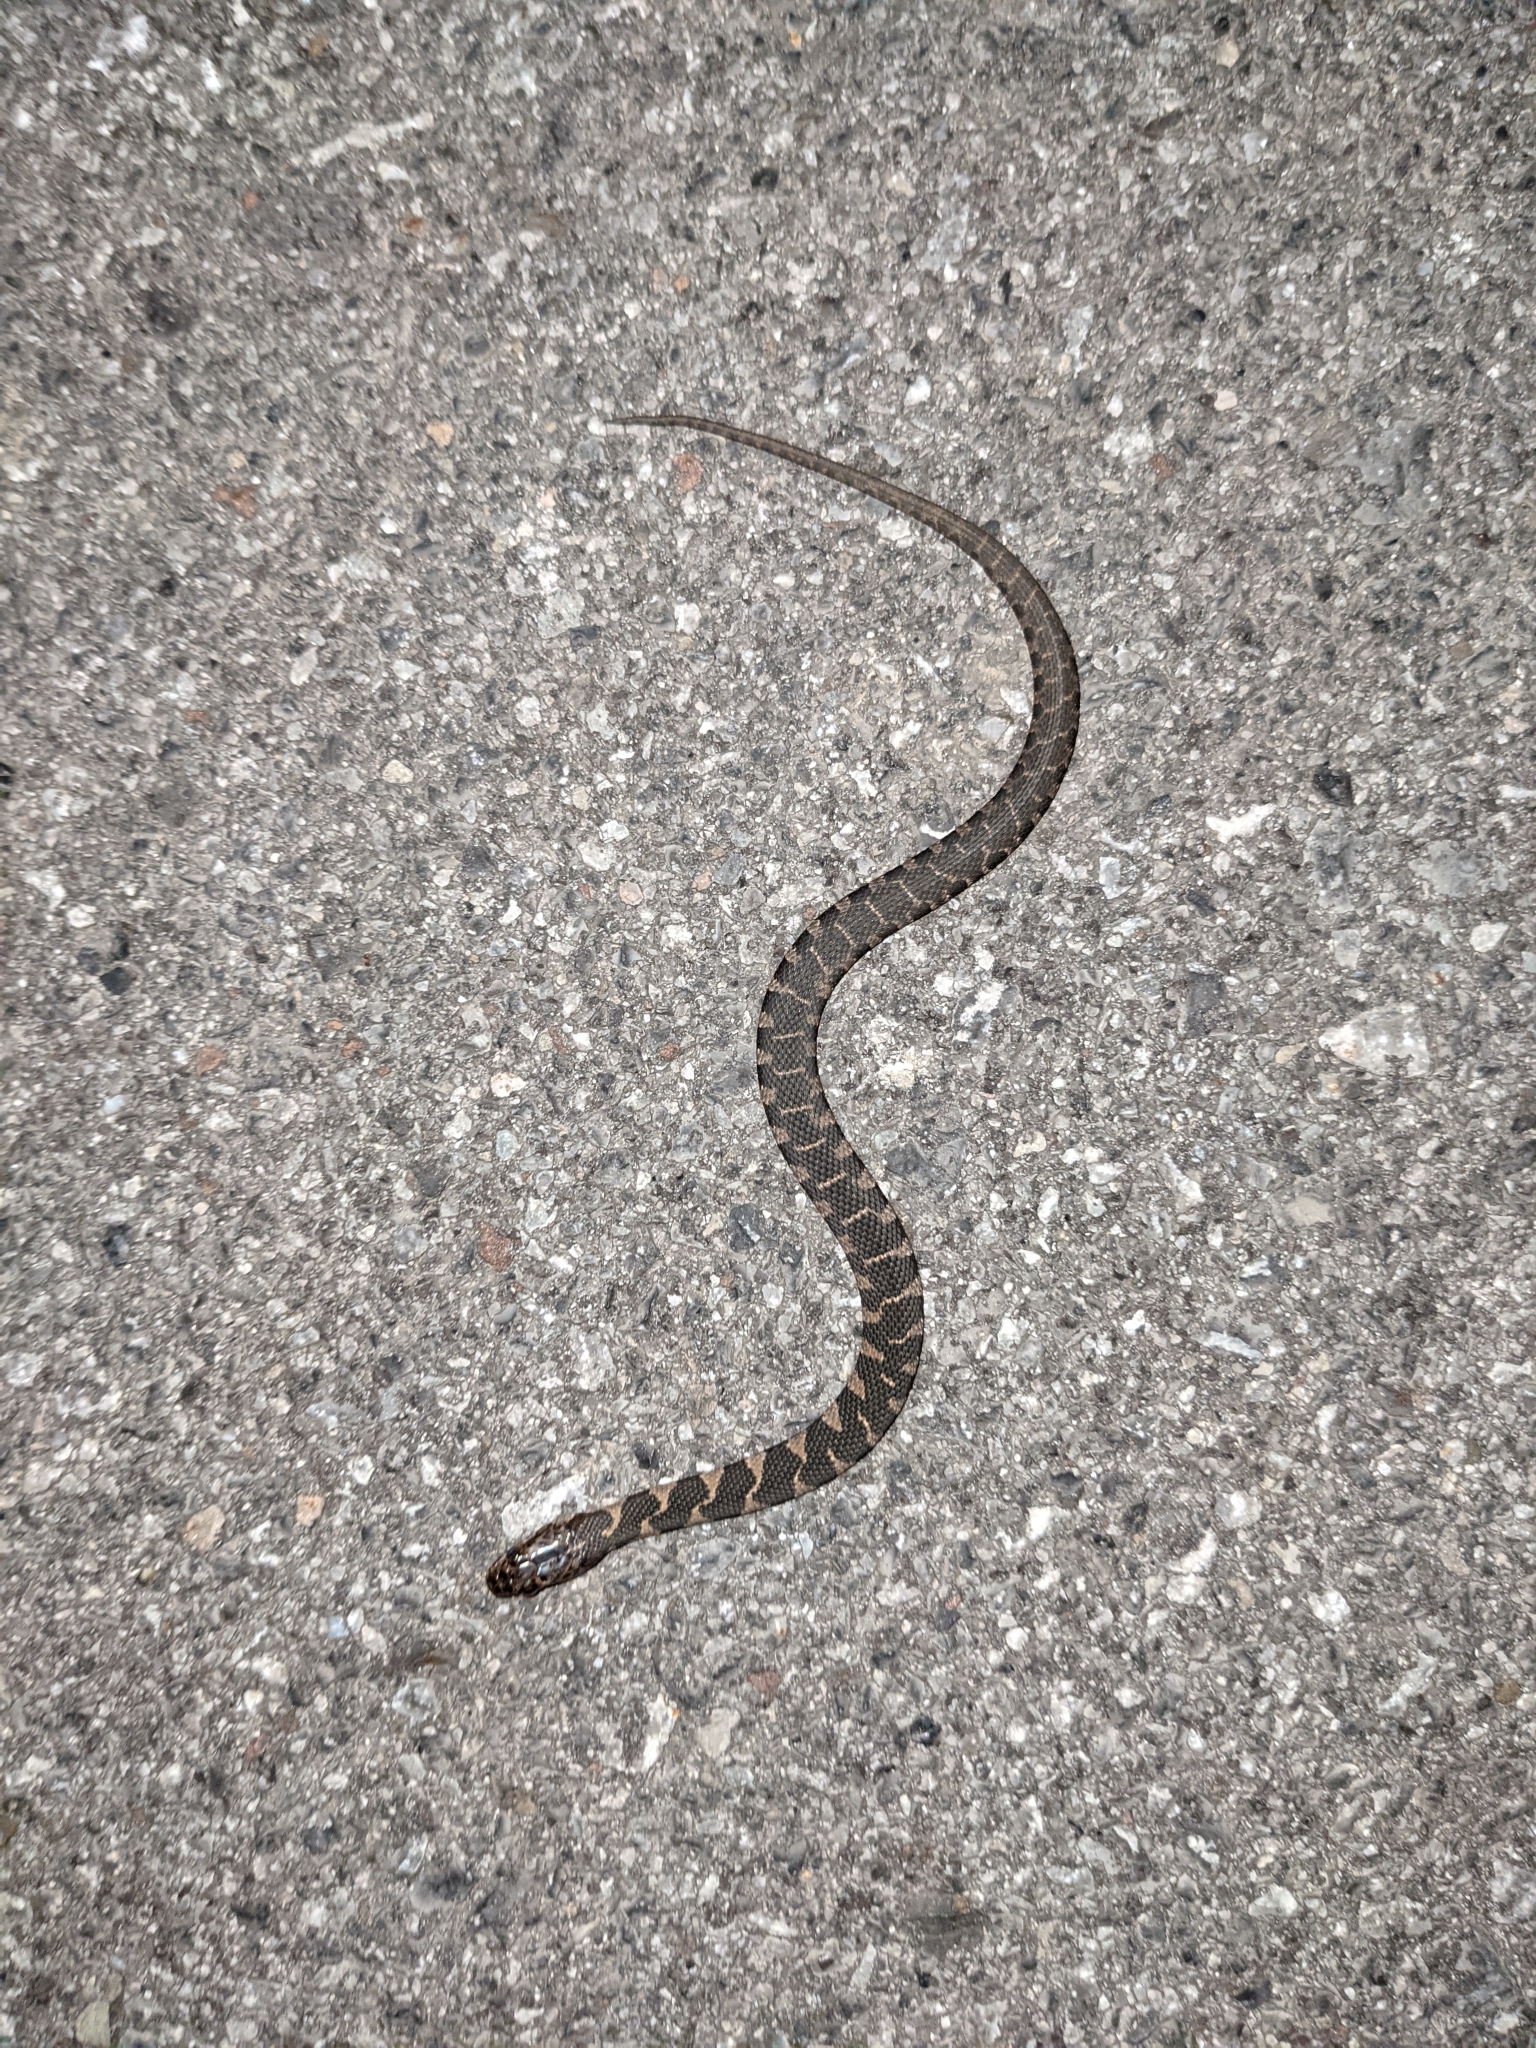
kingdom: Animalia
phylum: Chordata
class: Squamata
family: Colubridae
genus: Nerodia
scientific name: Nerodia sipedon
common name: Northern water snake
